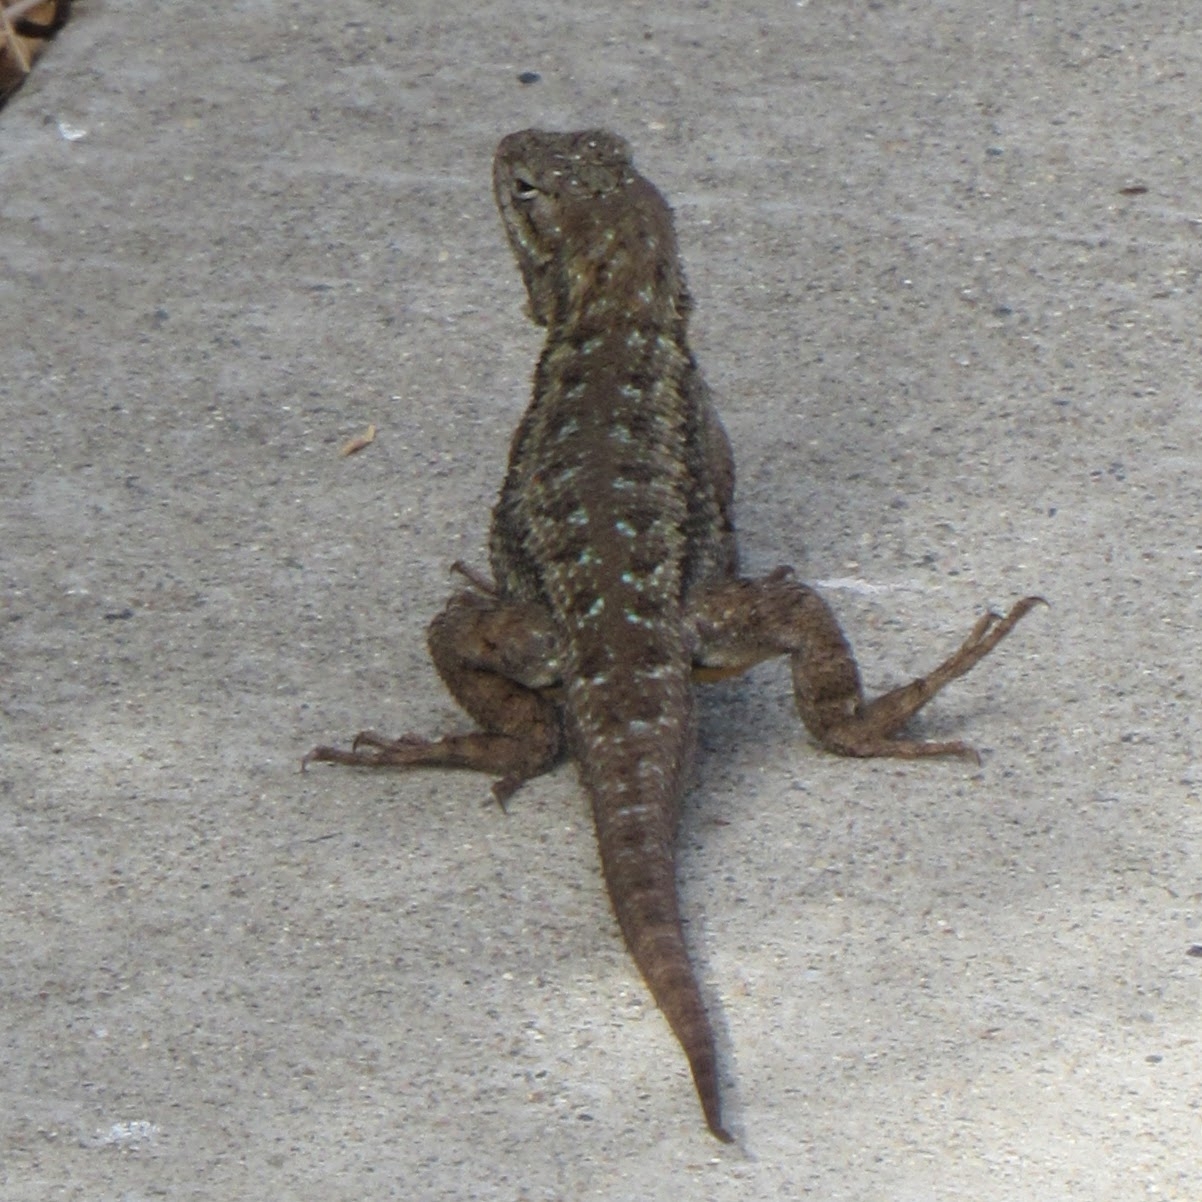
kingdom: Animalia
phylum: Chordata
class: Squamata
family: Phrynosomatidae
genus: Sceloporus
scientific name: Sceloporus occidentalis
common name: Western fence lizard
